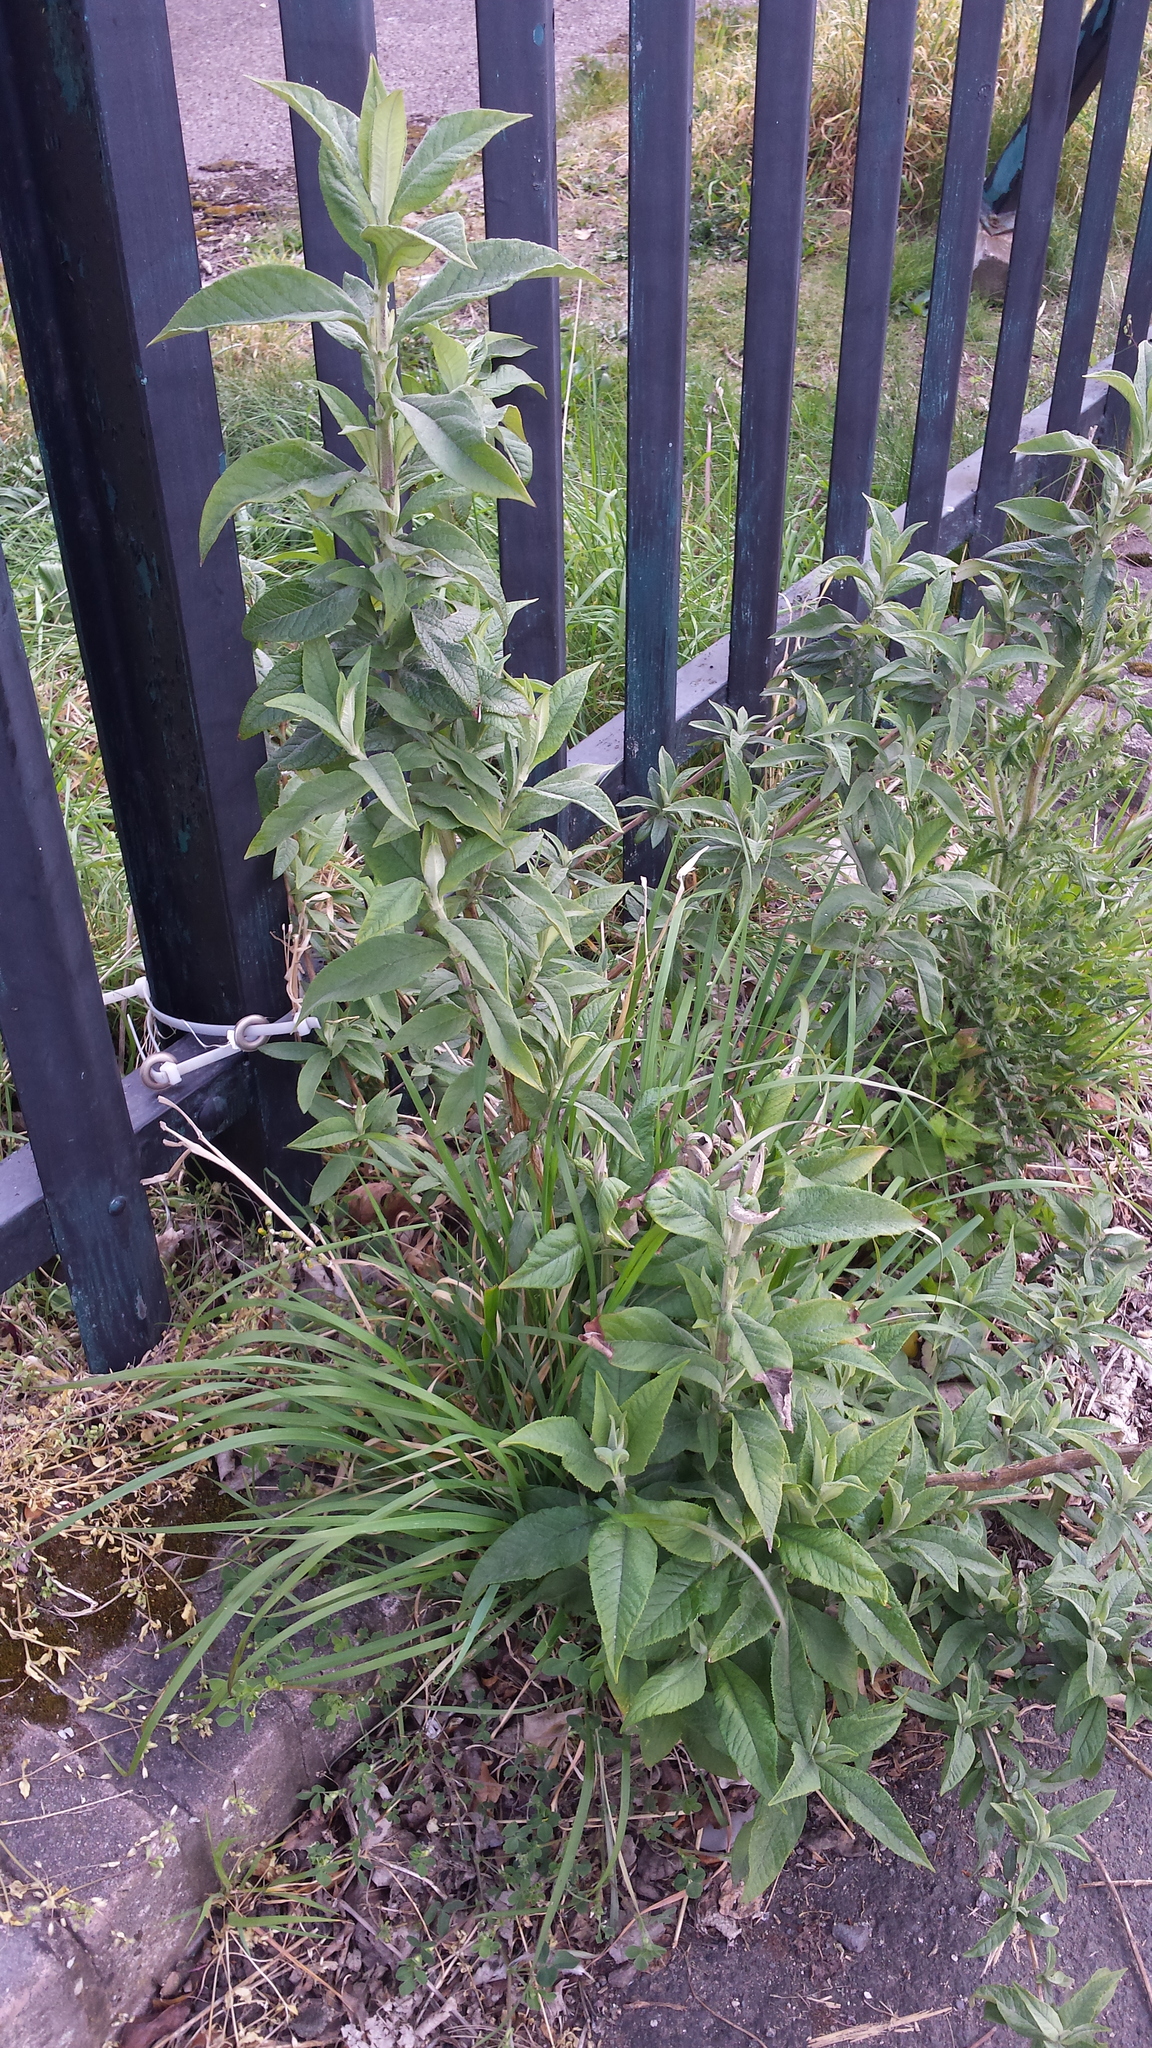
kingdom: Plantae
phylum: Tracheophyta
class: Magnoliopsida
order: Lamiales
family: Scrophulariaceae
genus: Buddleja
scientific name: Buddleja davidii
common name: Butterfly-bush
